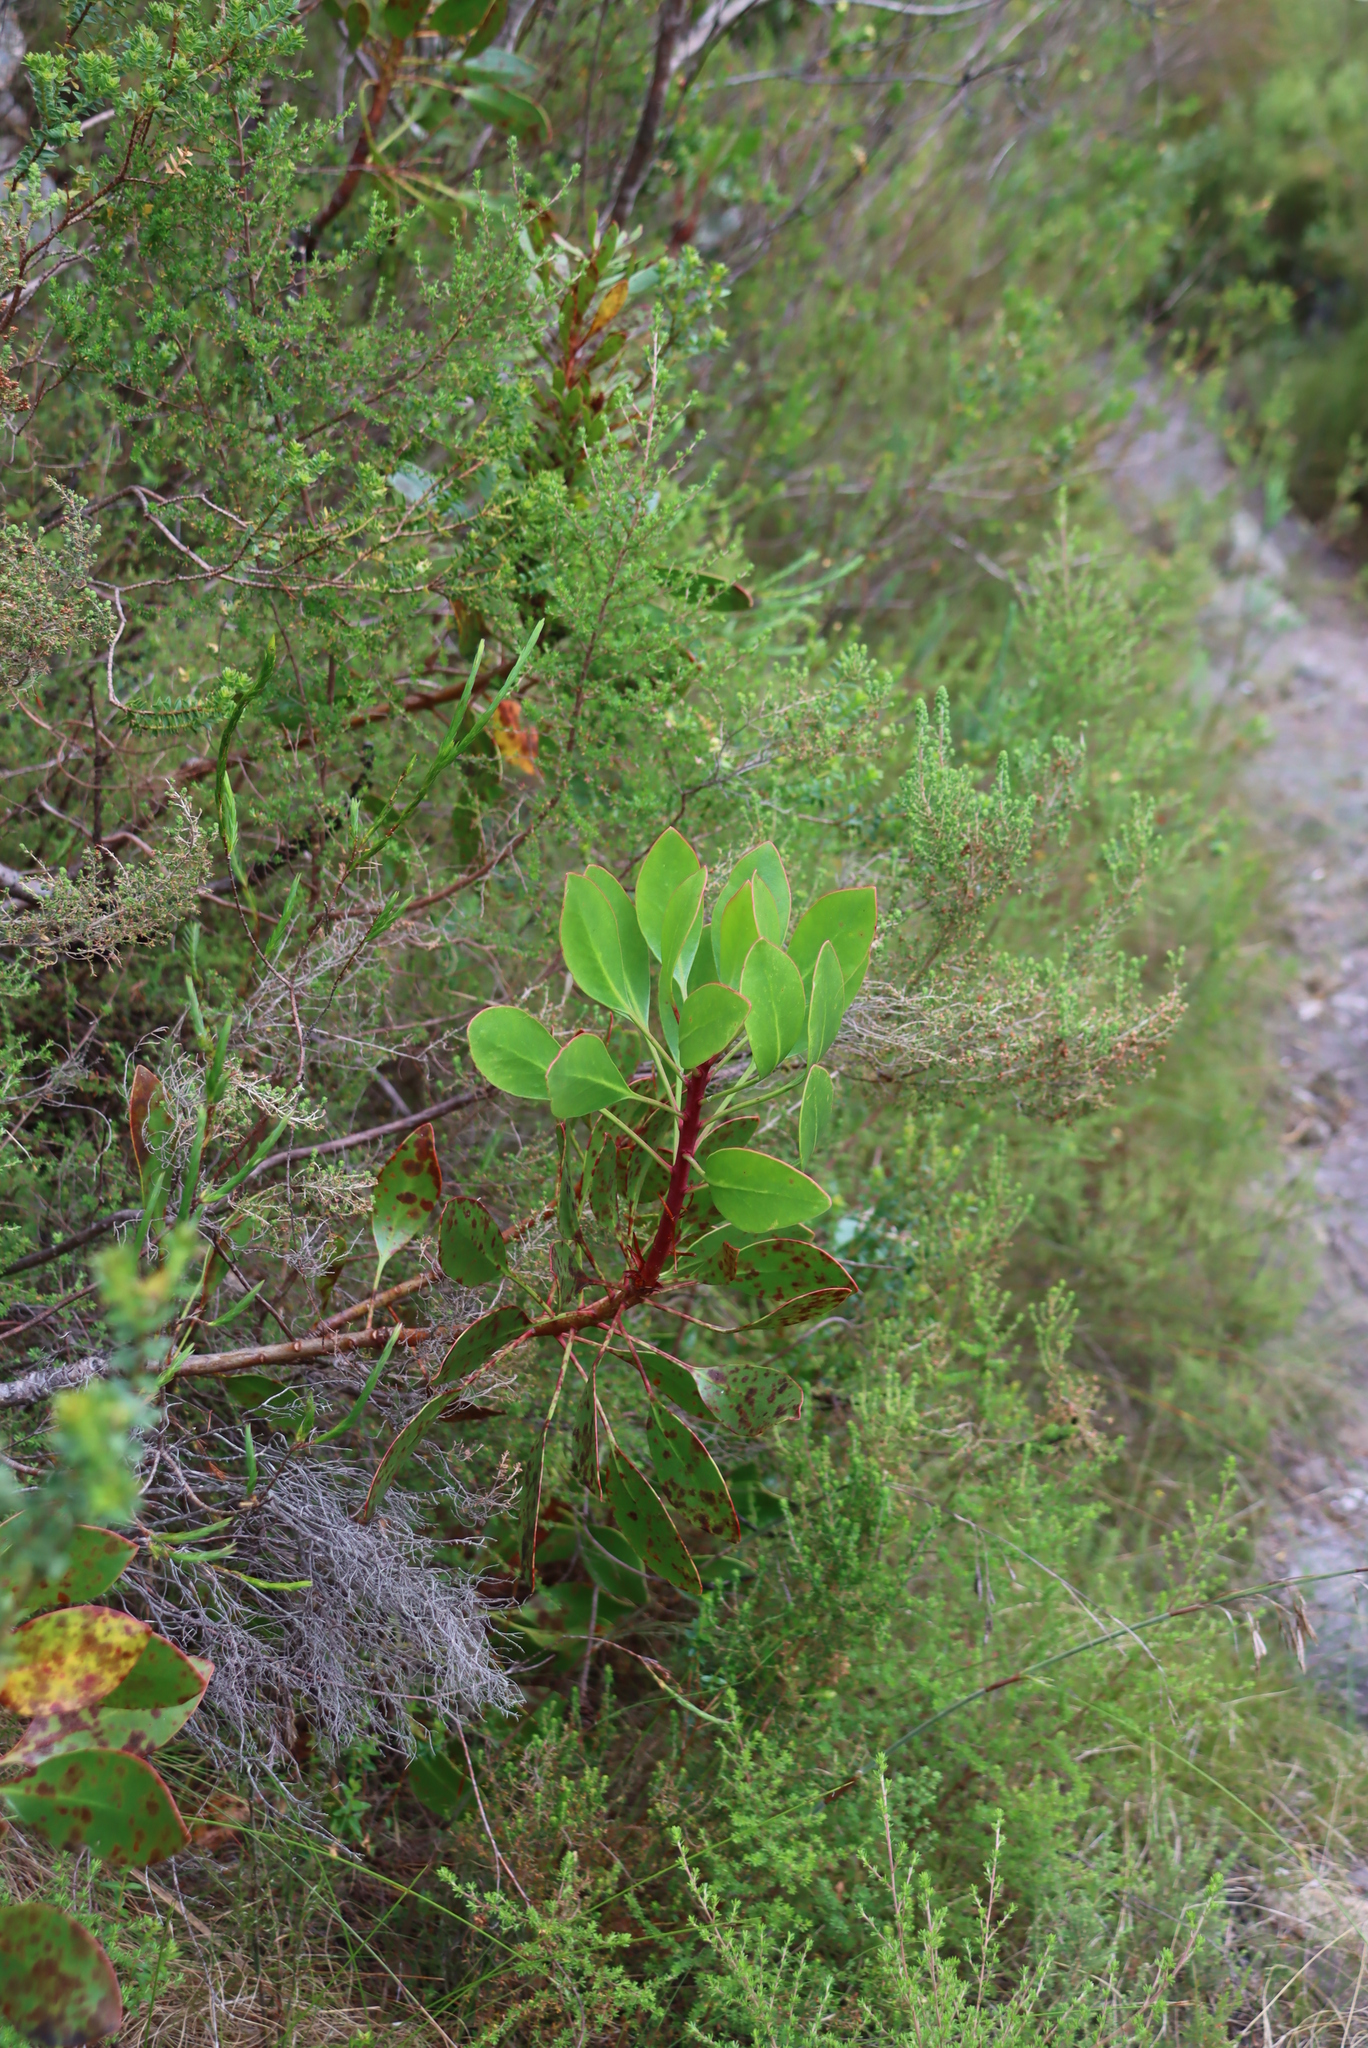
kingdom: Plantae
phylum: Tracheophyta
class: Magnoliopsida
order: Proteales
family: Proteaceae
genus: Protea
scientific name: Protea cynaroides
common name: King protea
